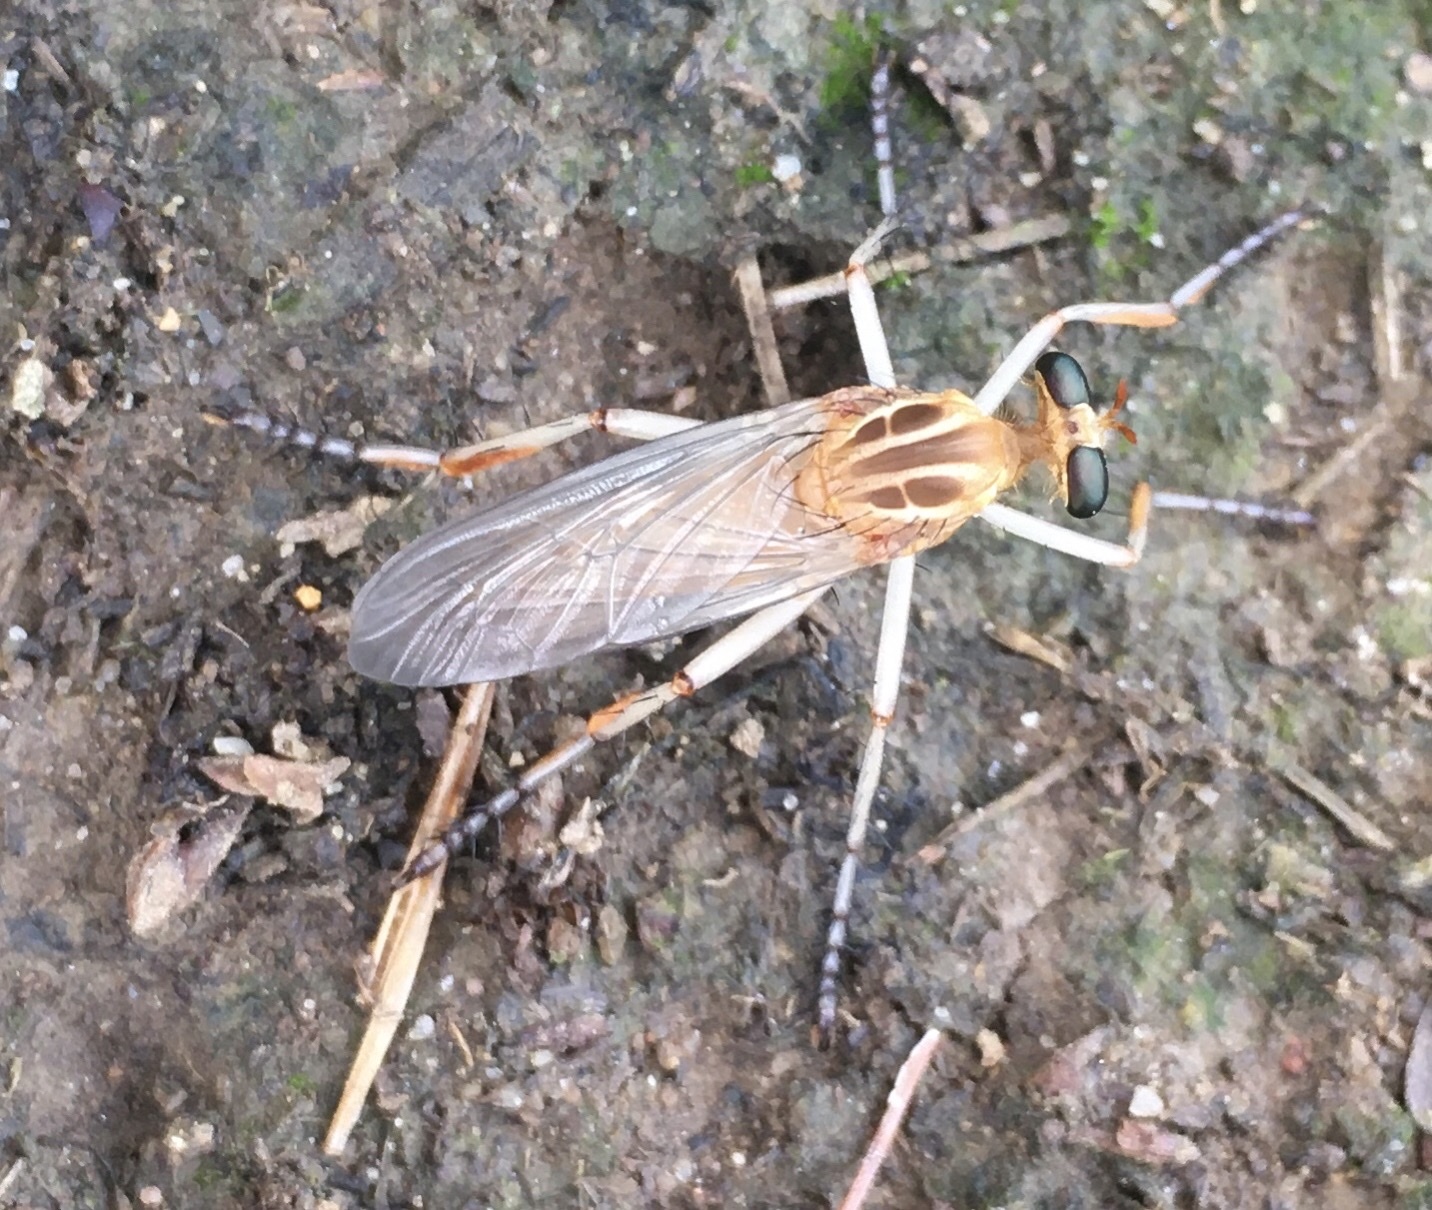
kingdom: Animalia
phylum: Arthropoda
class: Insecta
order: Diptera
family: Asilidae
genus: Diogmites
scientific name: Diogmites neoternatus
